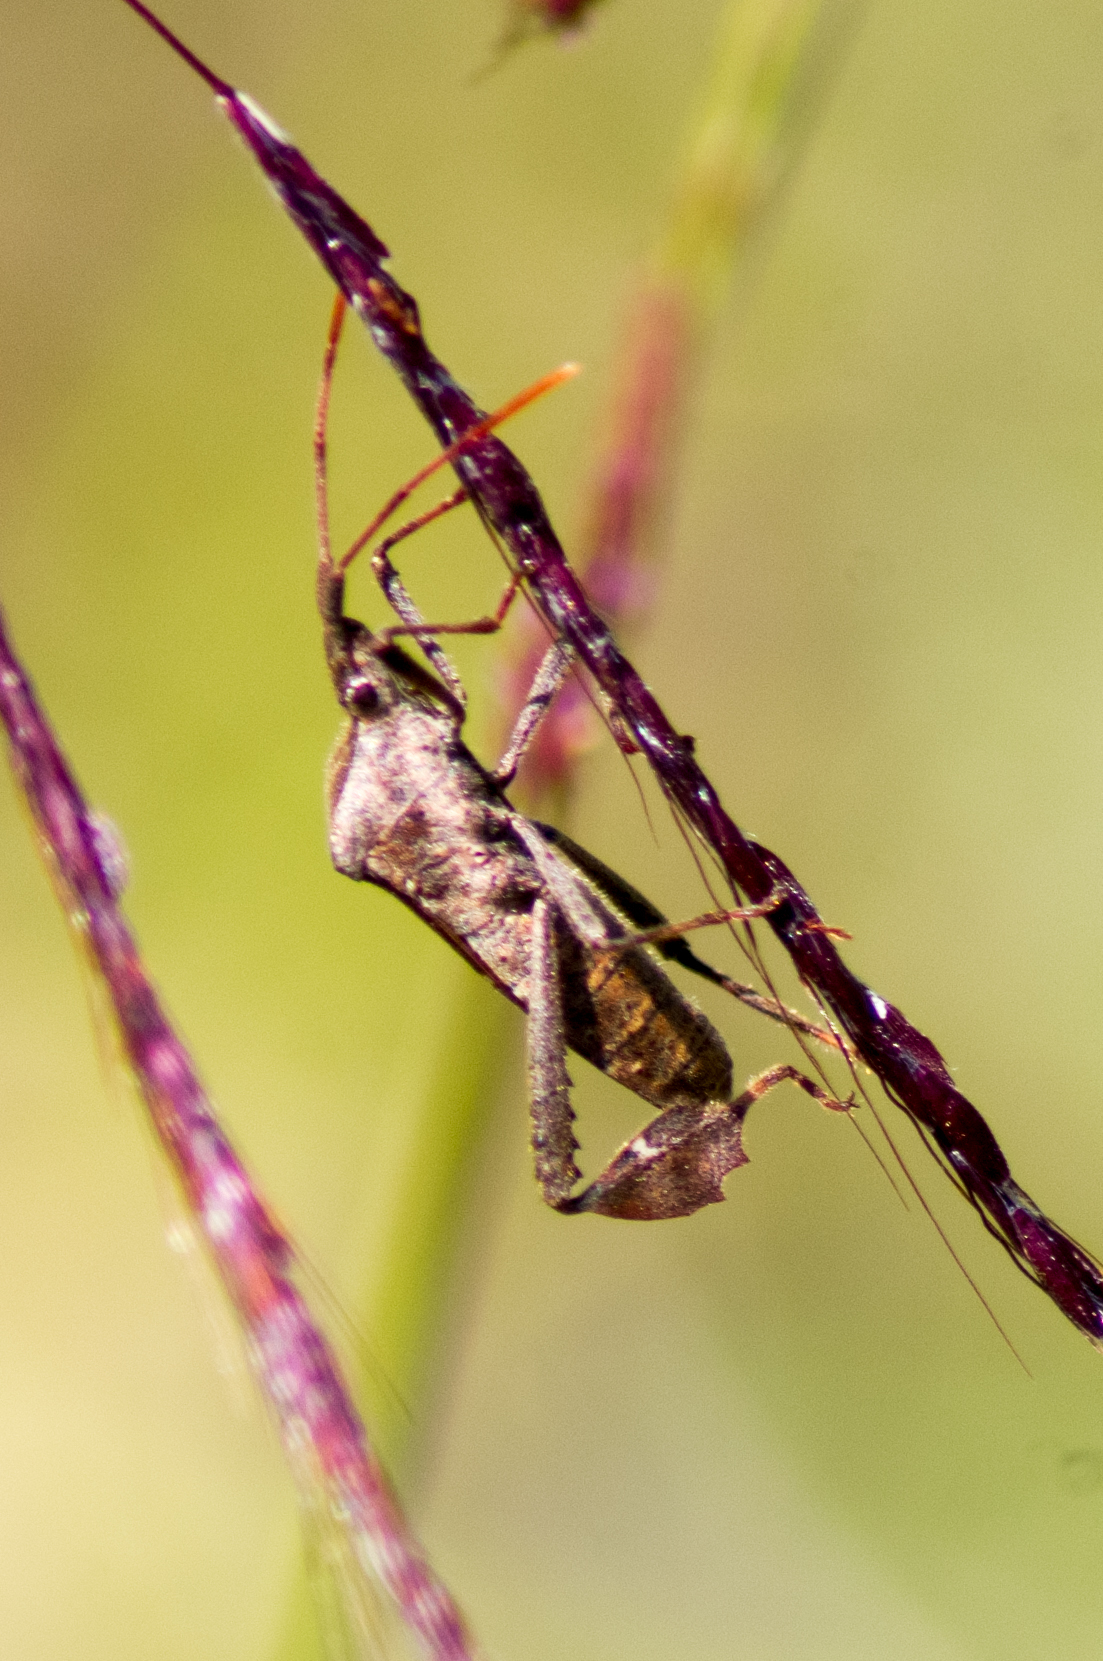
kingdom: Animalia
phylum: Arthropoda
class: Insecta
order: Hemiptera
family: Coreidae
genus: Leptoglossus
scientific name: Leptoglossus phyllopus
